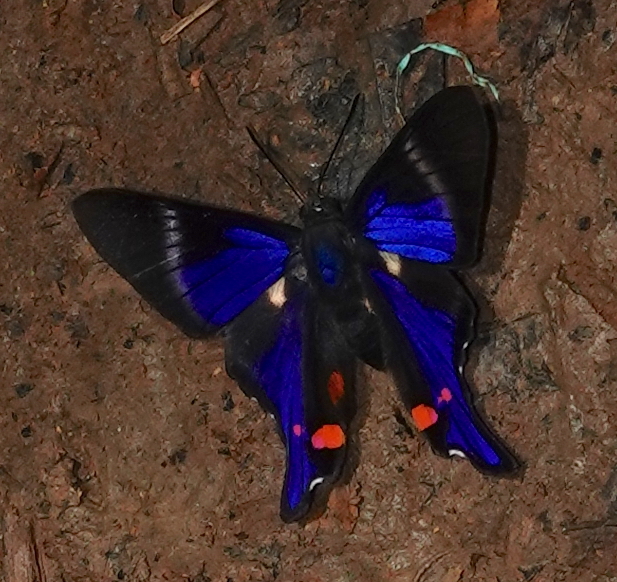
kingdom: Animalia
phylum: Arthropoda
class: Insecta
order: Lepidoptera
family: Riodinidae
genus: Rhetus
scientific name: Rhetus periander
